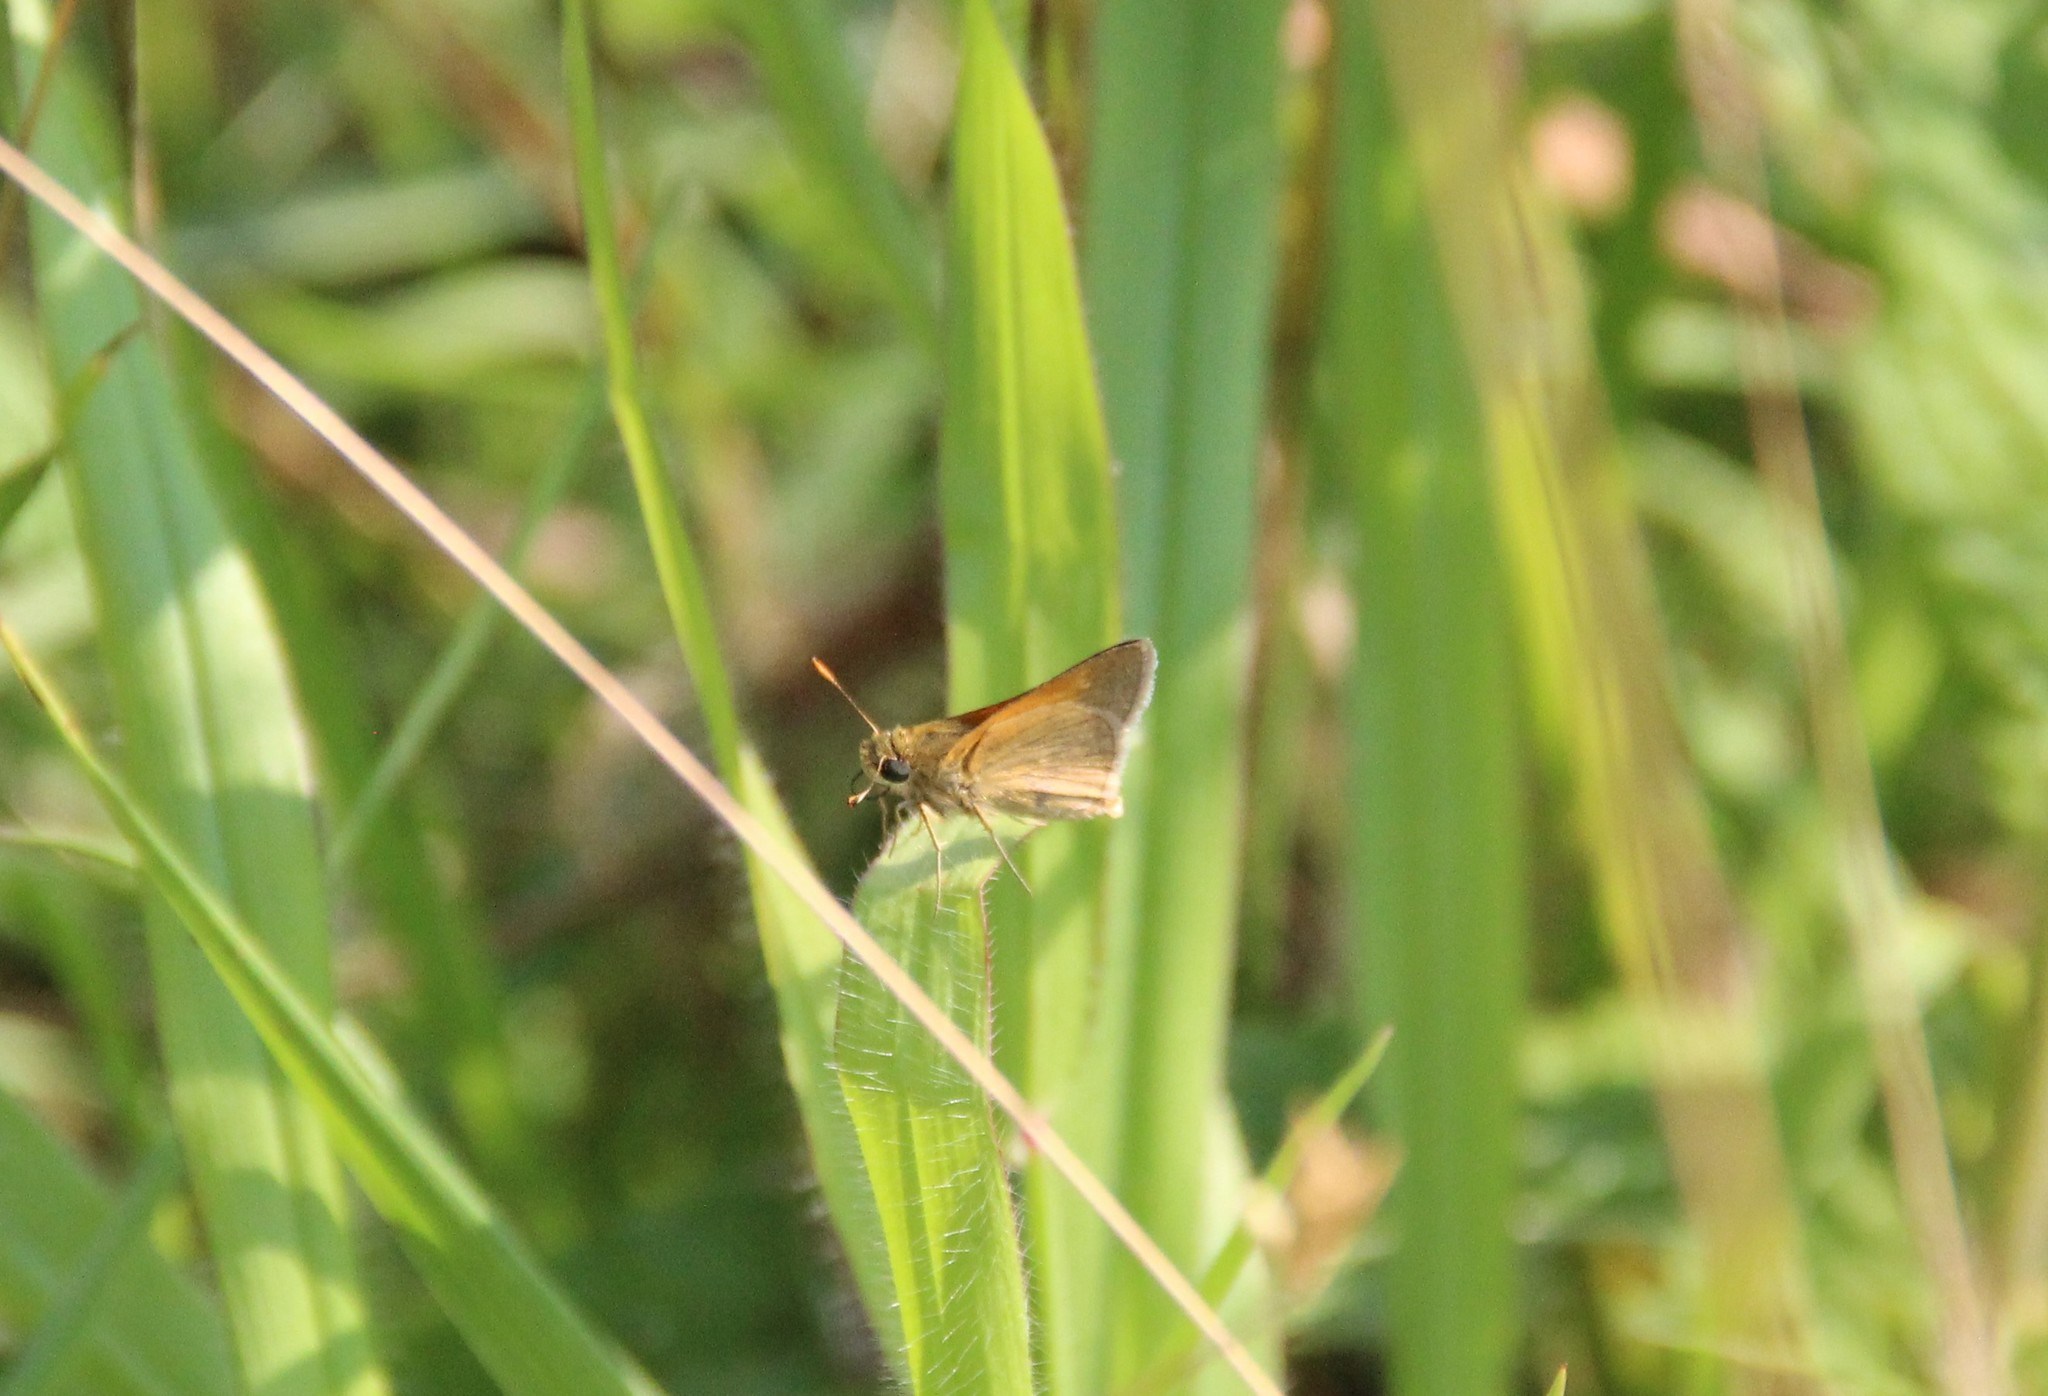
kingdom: Animalia
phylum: Arthropoda
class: Insecta
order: Lepidoptera
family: Hesperiidae
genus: Polites
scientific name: Polites themistocles
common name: Tawny-edged skipper
